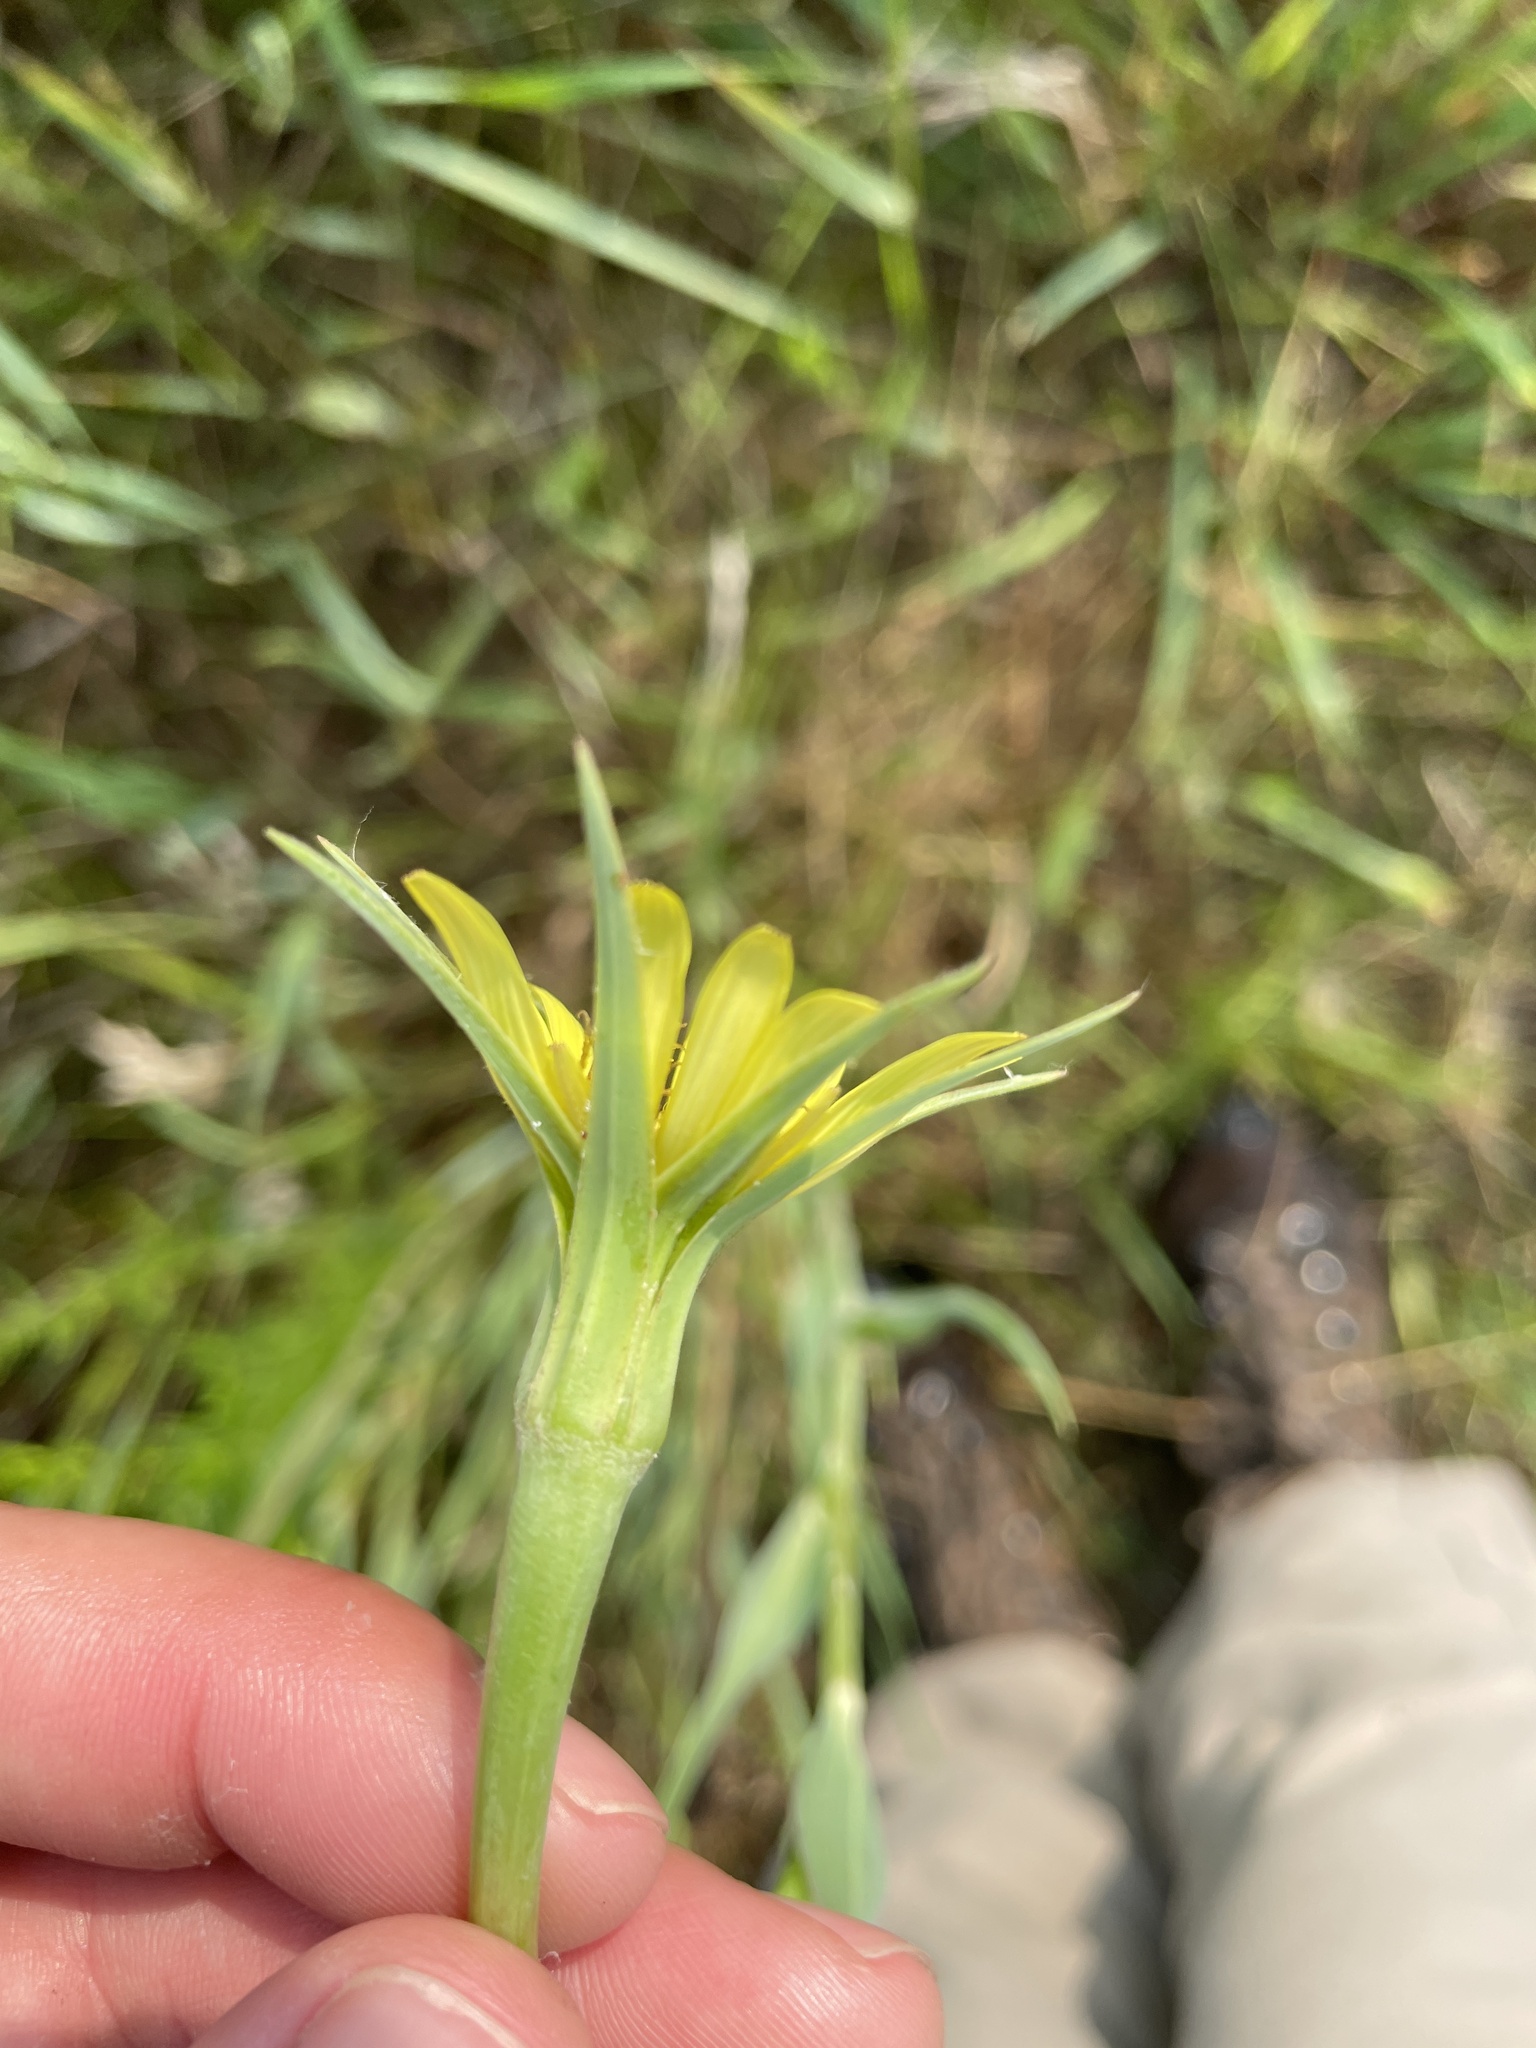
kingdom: Plantae
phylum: Tracheophyta
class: Magnoliopsida
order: Asterales
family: Asteraceae
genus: Tragopogon
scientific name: Tragopogon dubius
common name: Yellow salsify
